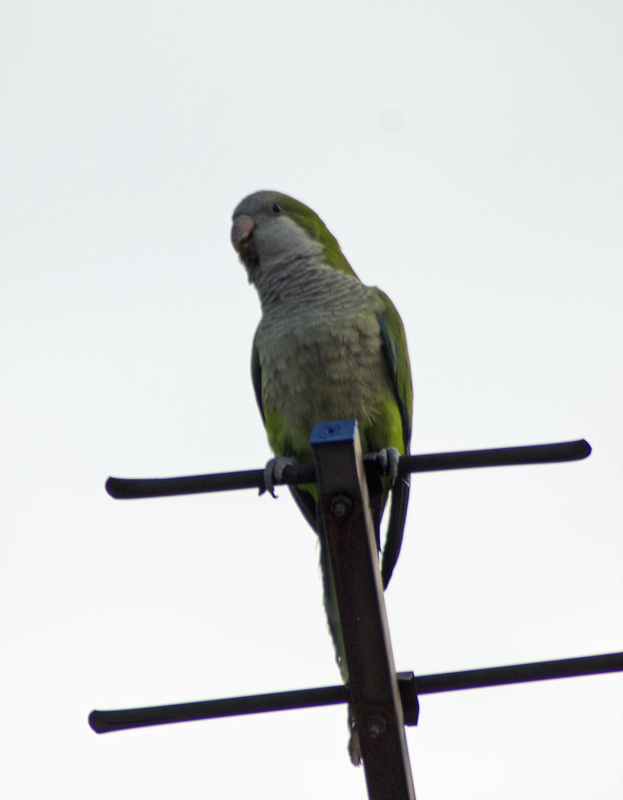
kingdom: Animalia
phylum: Chordata
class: Aves
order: Psittaciformes
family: Psittacidae
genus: Myiopsitta
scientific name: Myiopsitta monachus
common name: Monk parakeet
